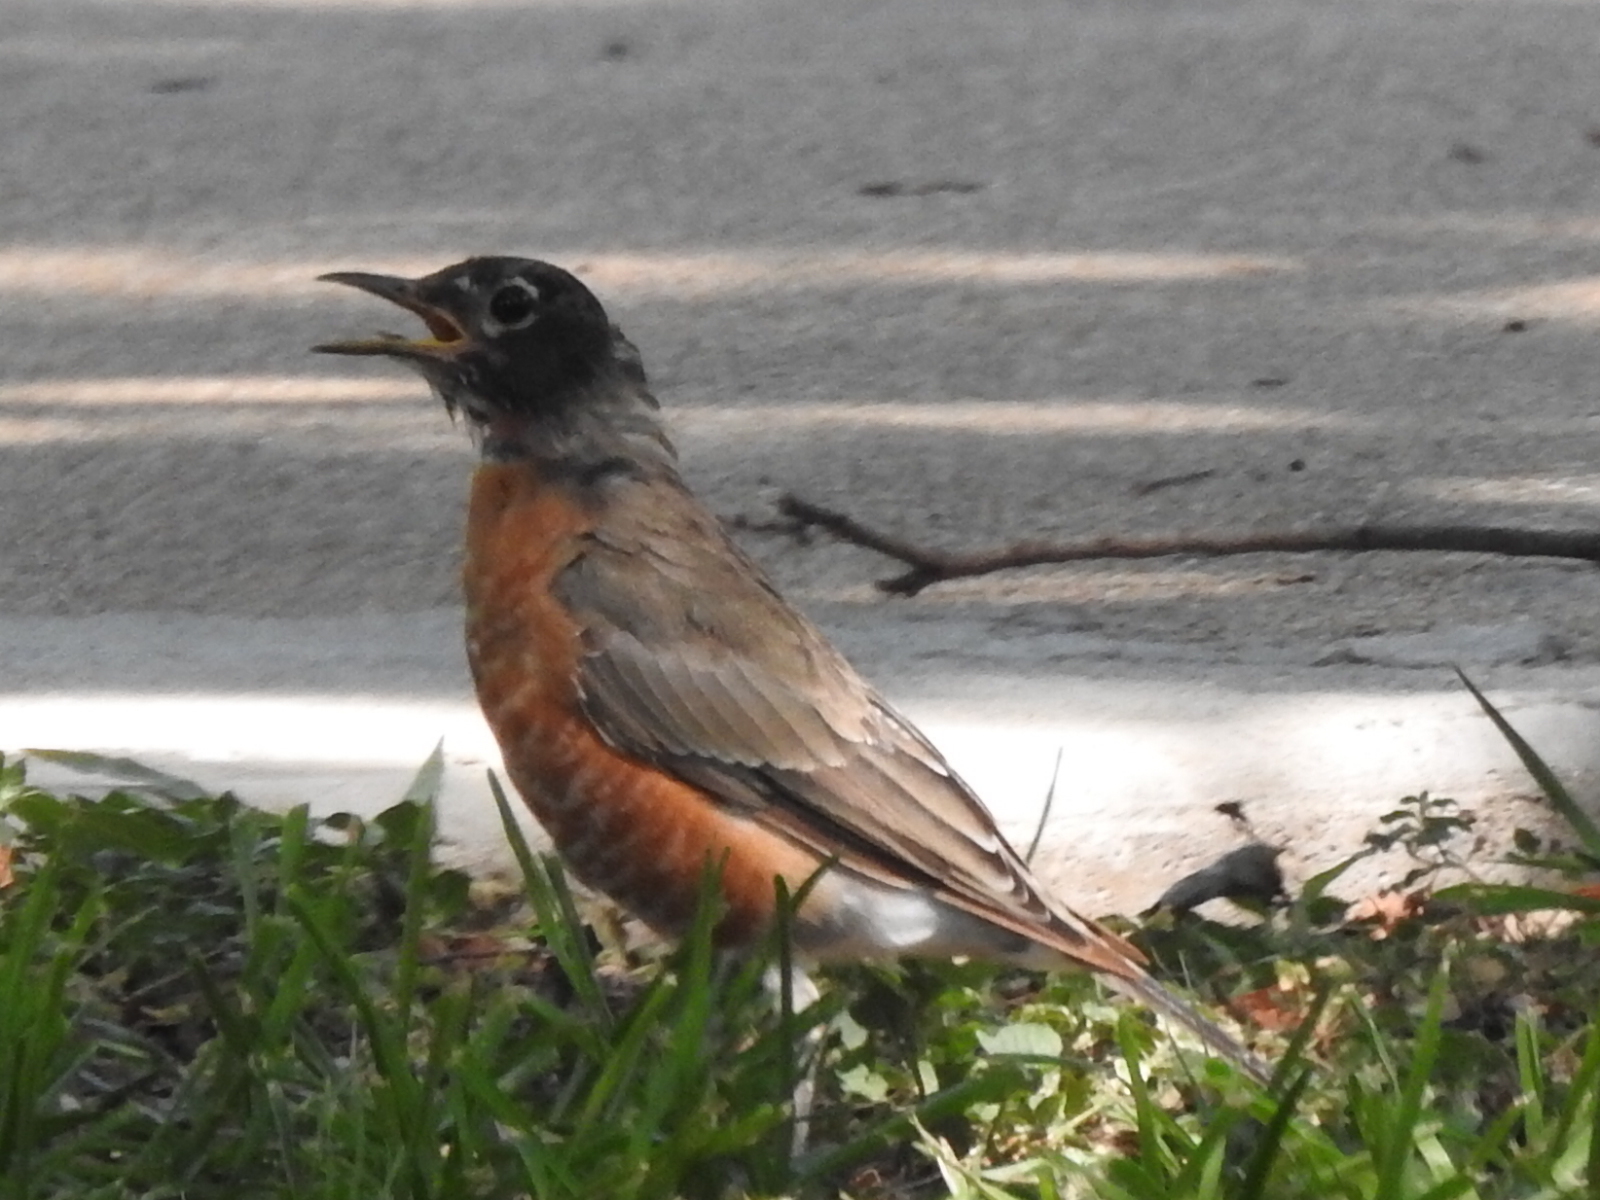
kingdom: Animalia
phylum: Chordata
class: Aves
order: Passeriformes
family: Turdidae
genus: Turdus
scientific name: Turdus migratorius
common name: American robin
